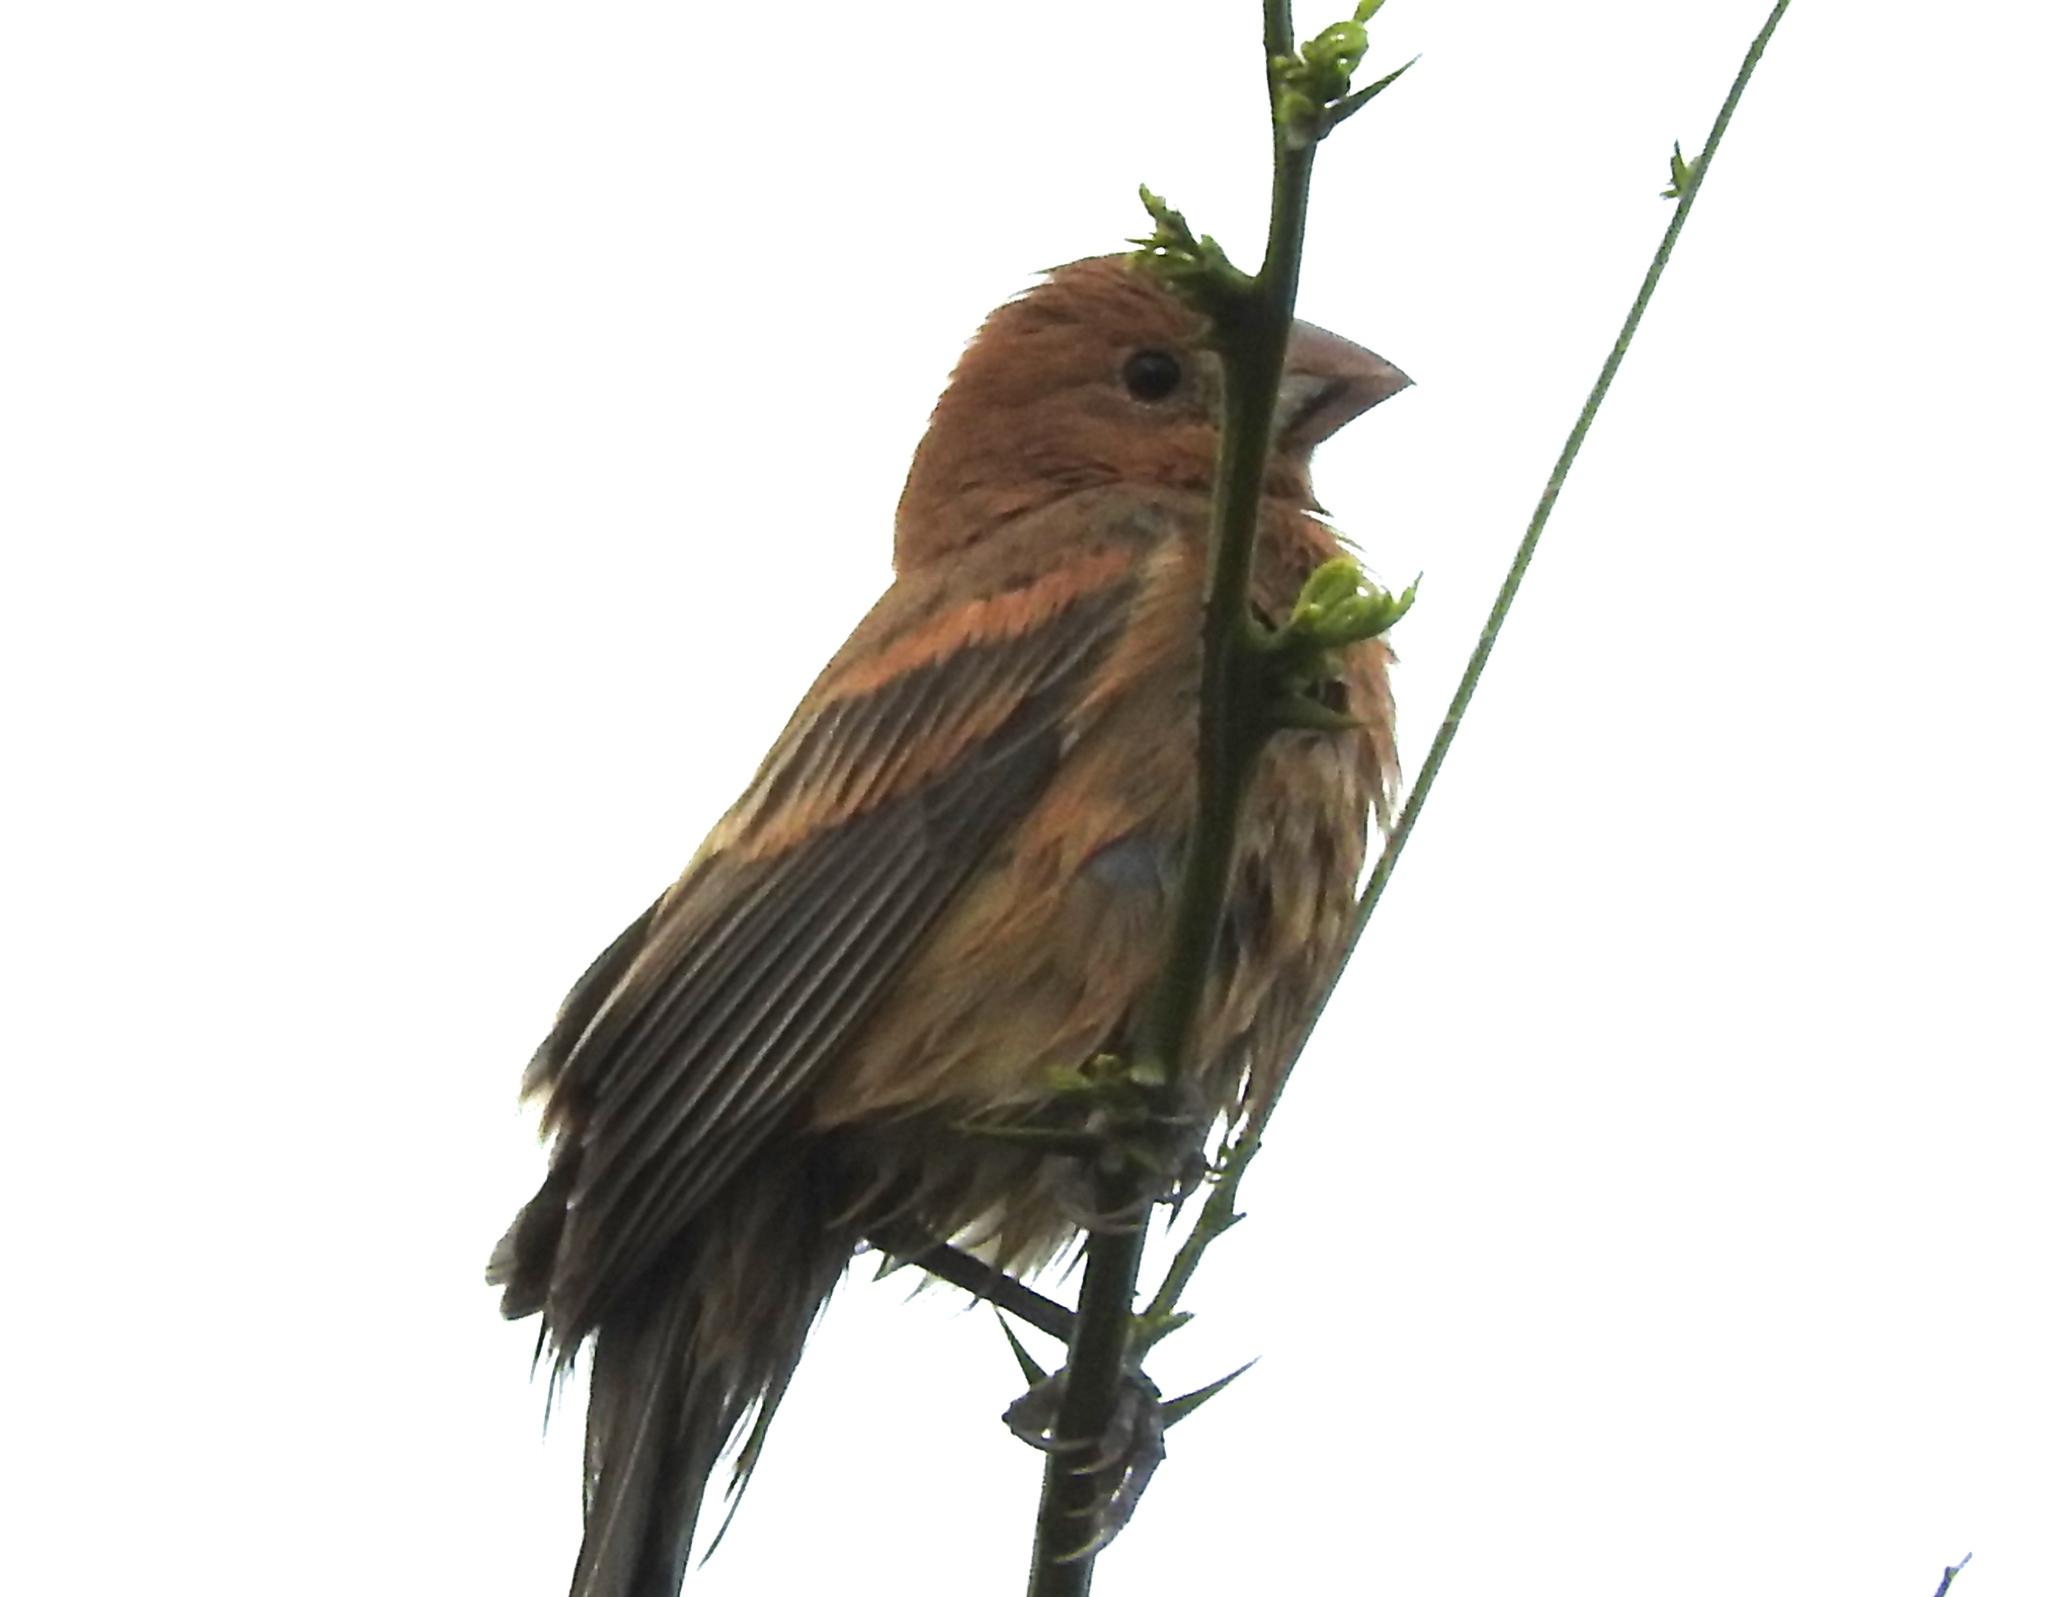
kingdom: Animalia
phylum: Chordata
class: Aves
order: Passeriformes
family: Cardinalidae
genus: Passerina
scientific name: Passerina caerulea
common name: Blue grosbeak
